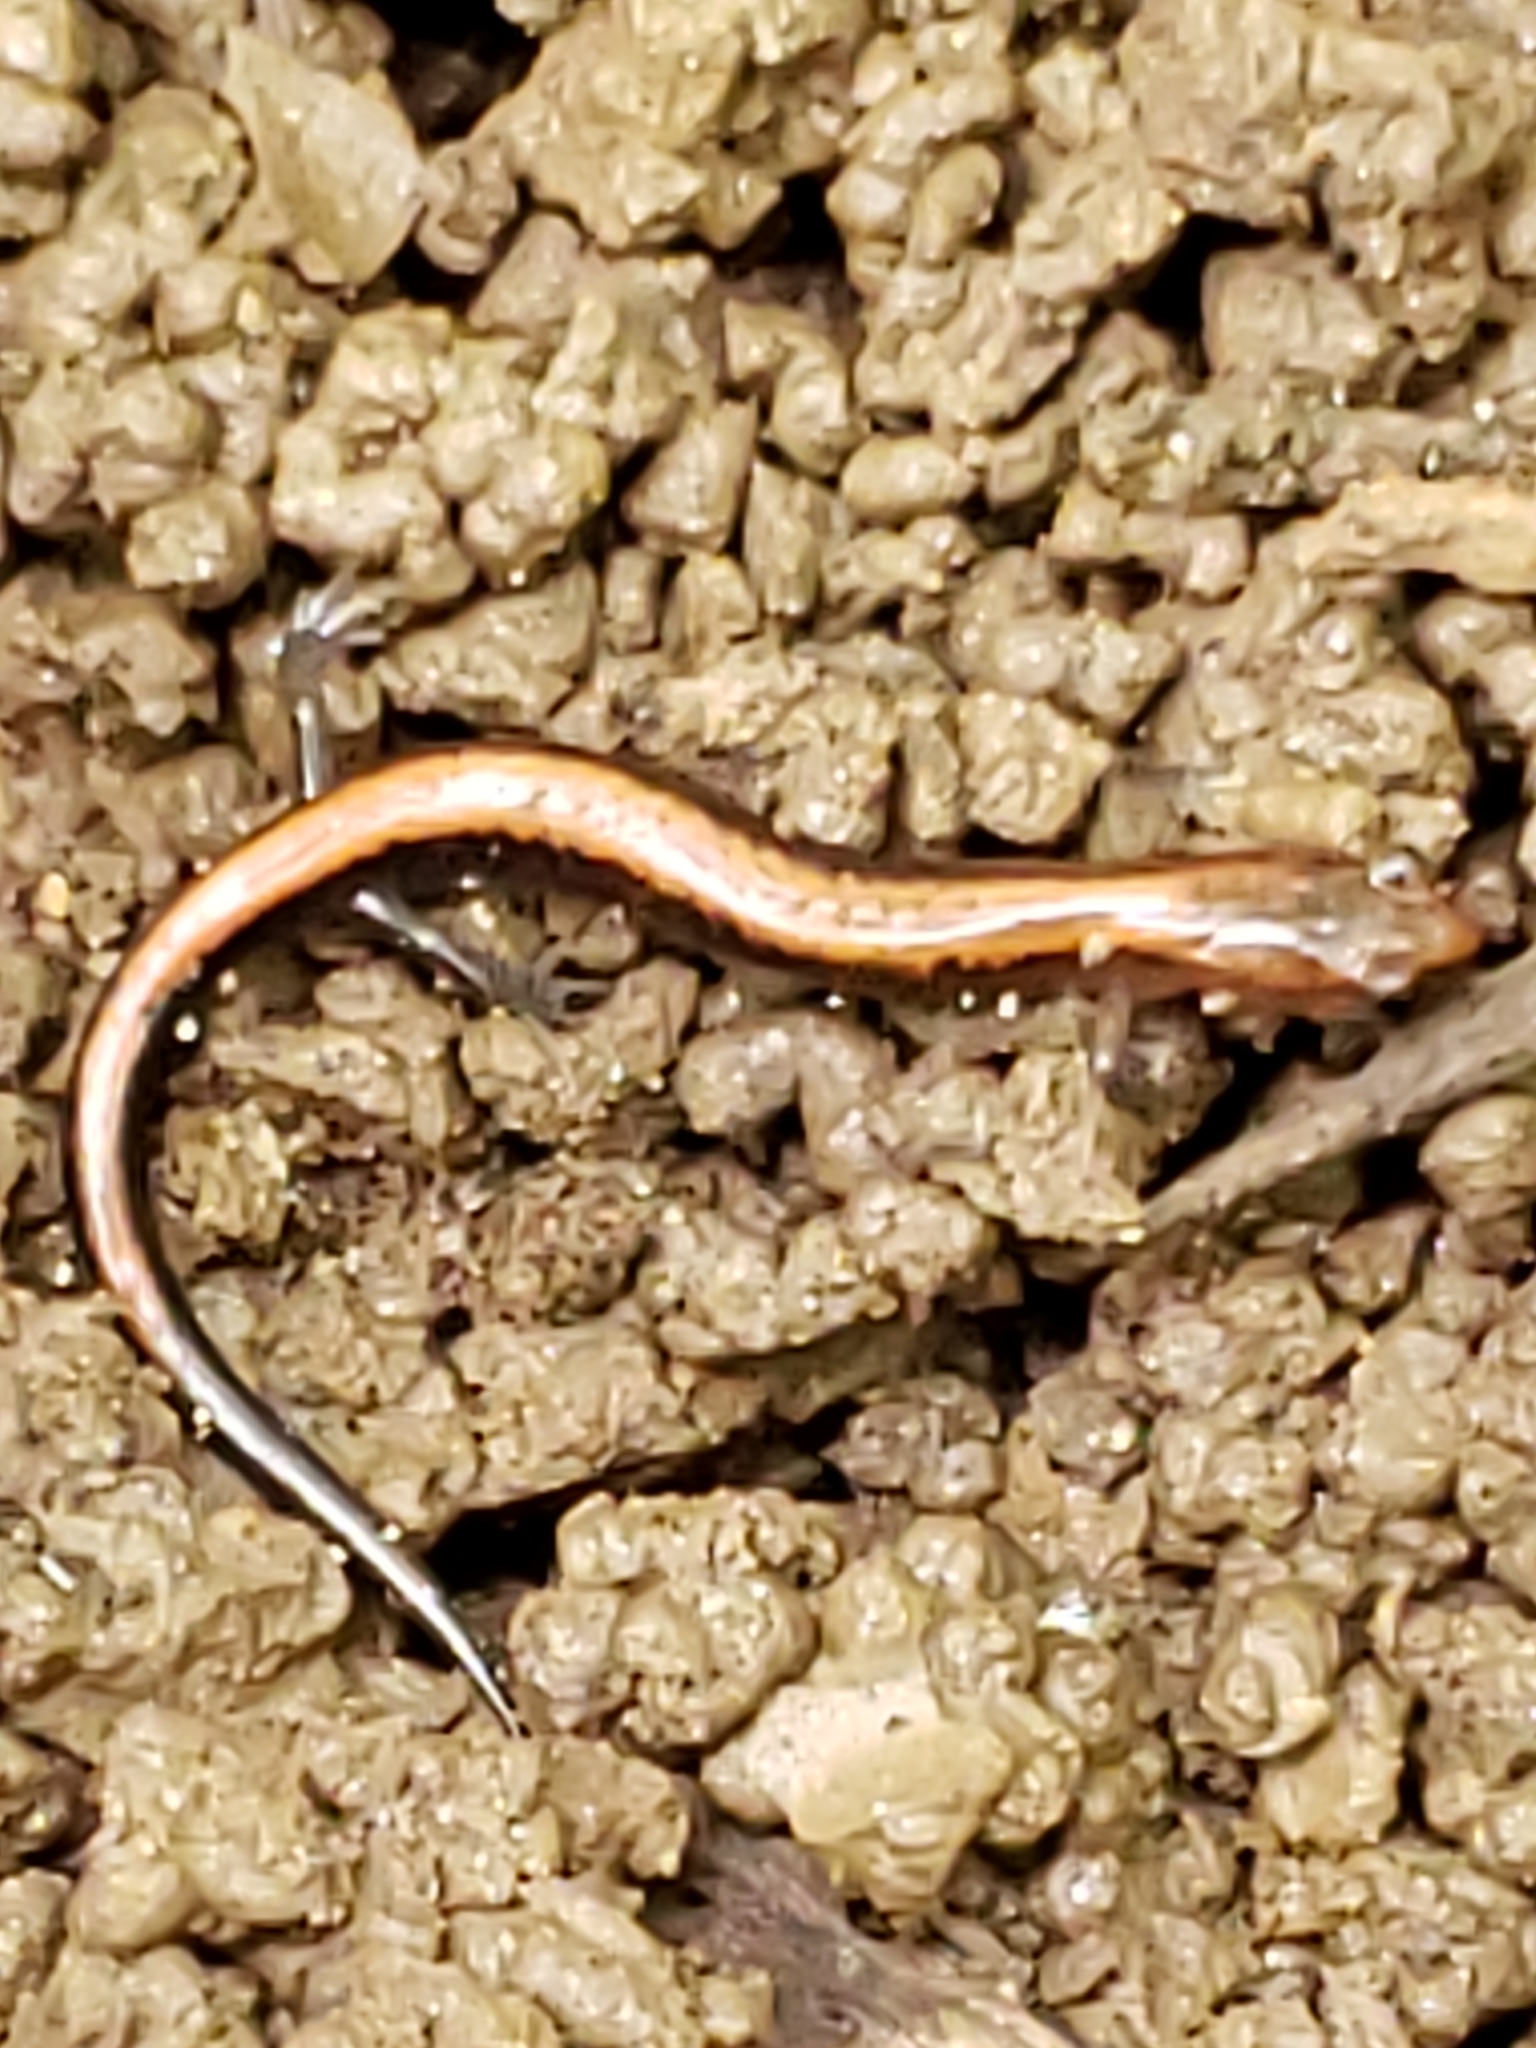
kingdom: Animalia
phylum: Chordata
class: Amphibia
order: Caudata
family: Plethodontidae
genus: Plethodon
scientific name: Plethodon cinereus
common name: Redback salamander
